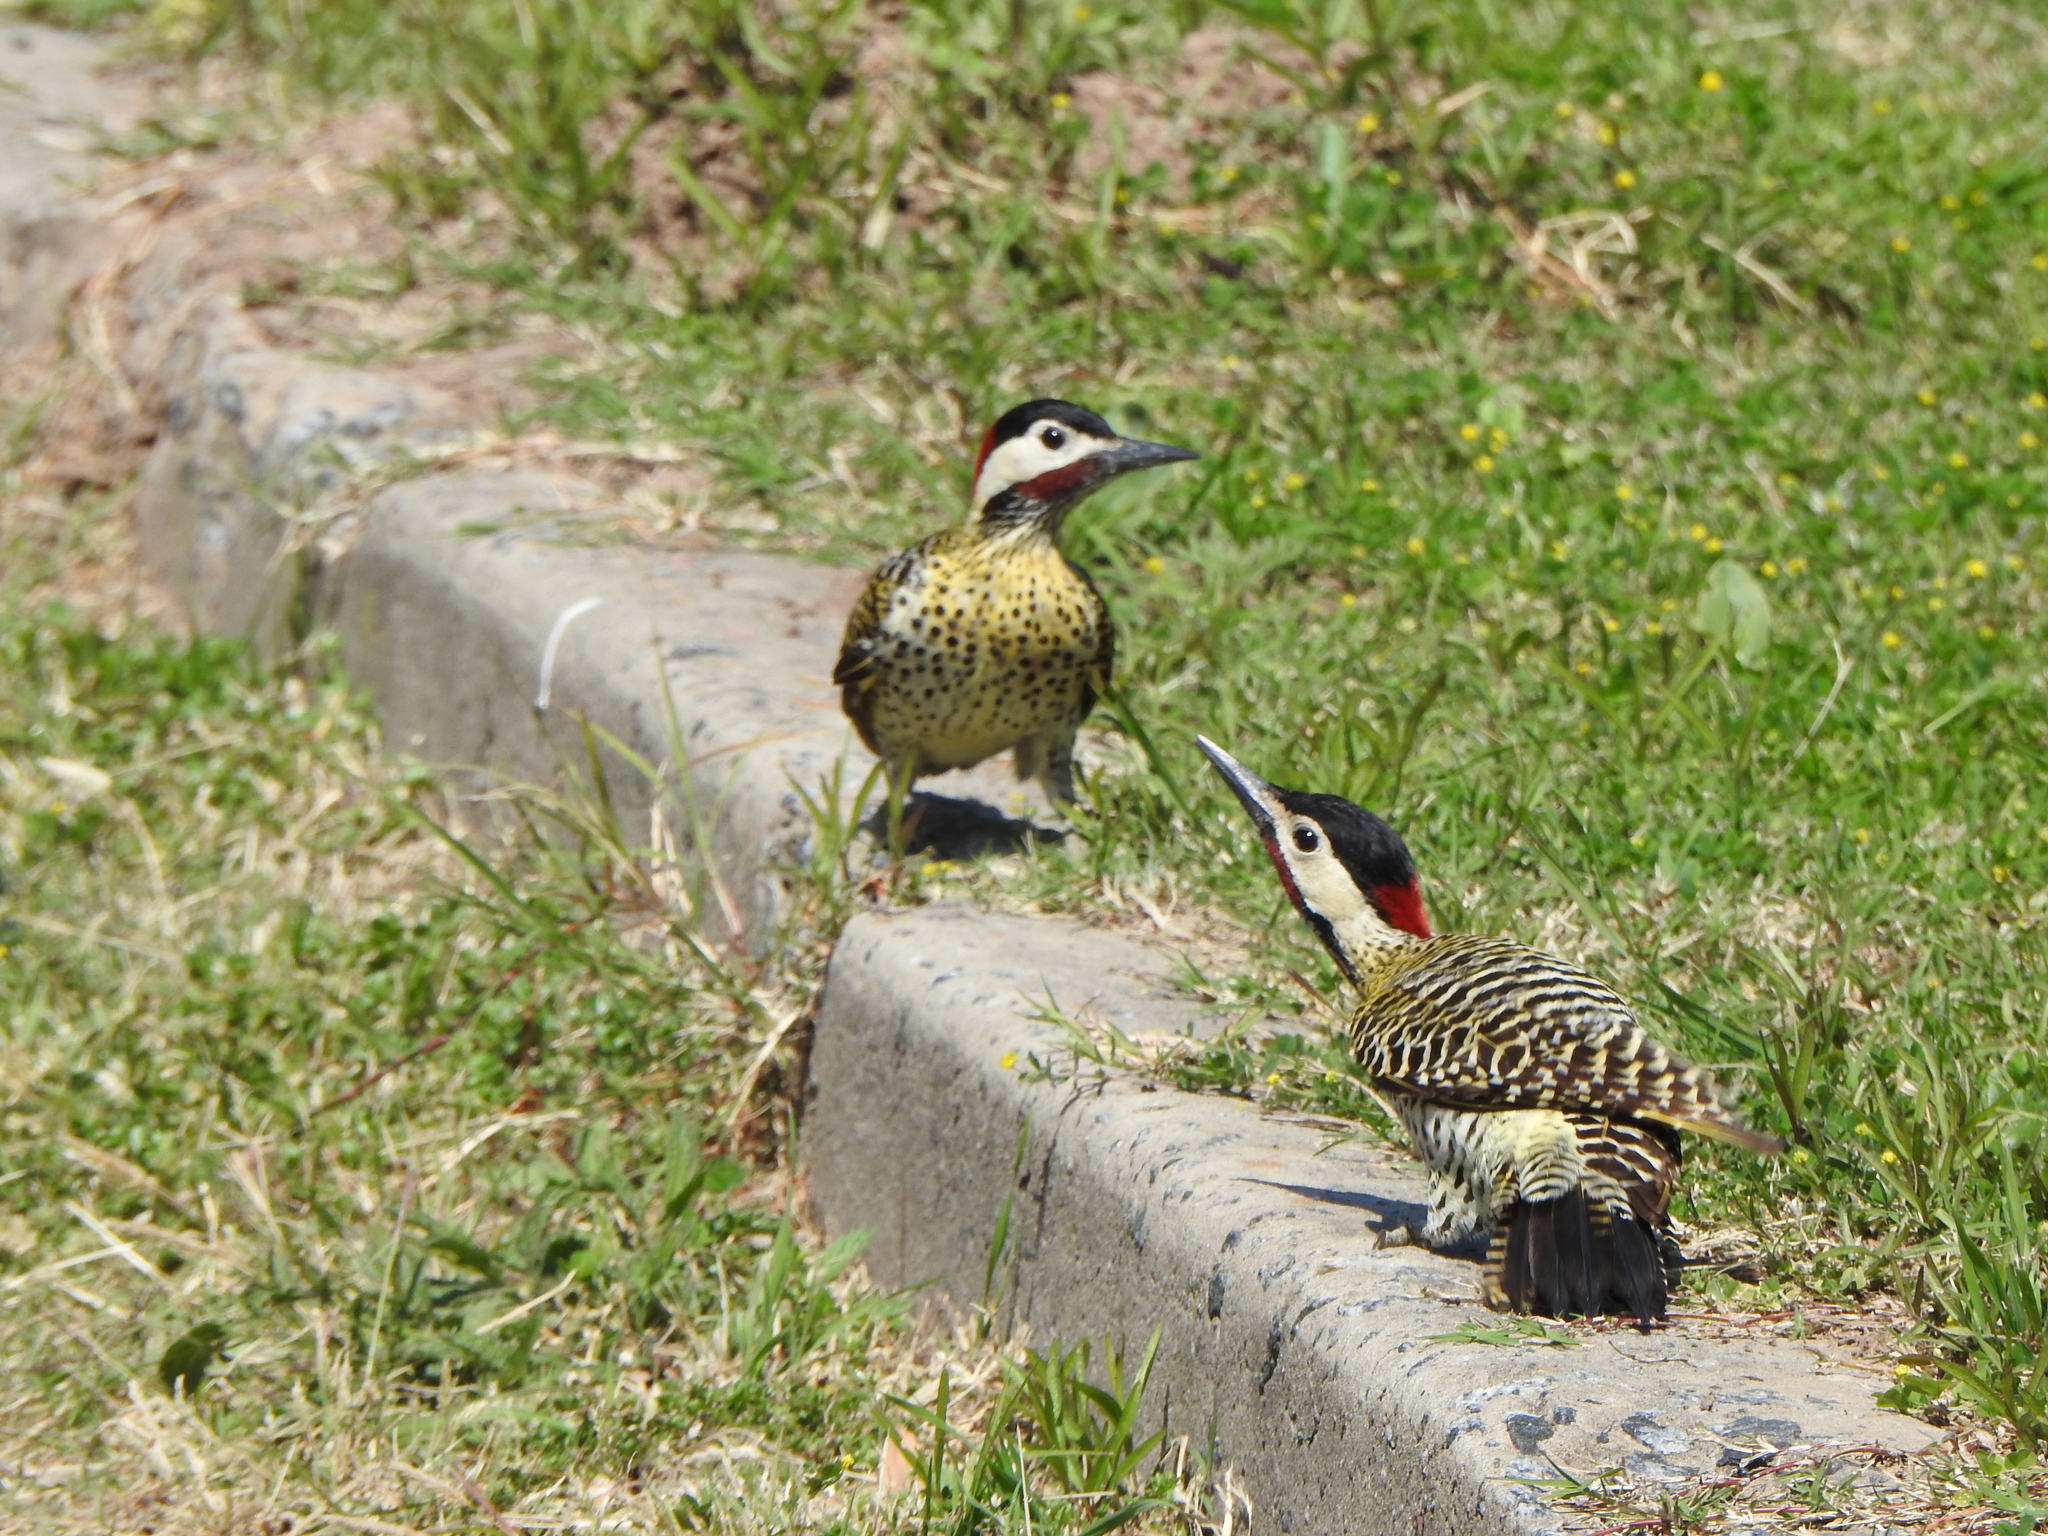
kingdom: Animalia
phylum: Chordata
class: Aves
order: Piciformes
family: Picidae
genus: Colaptes
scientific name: Colaptes melanochloros
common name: Green-barred woodpecker
